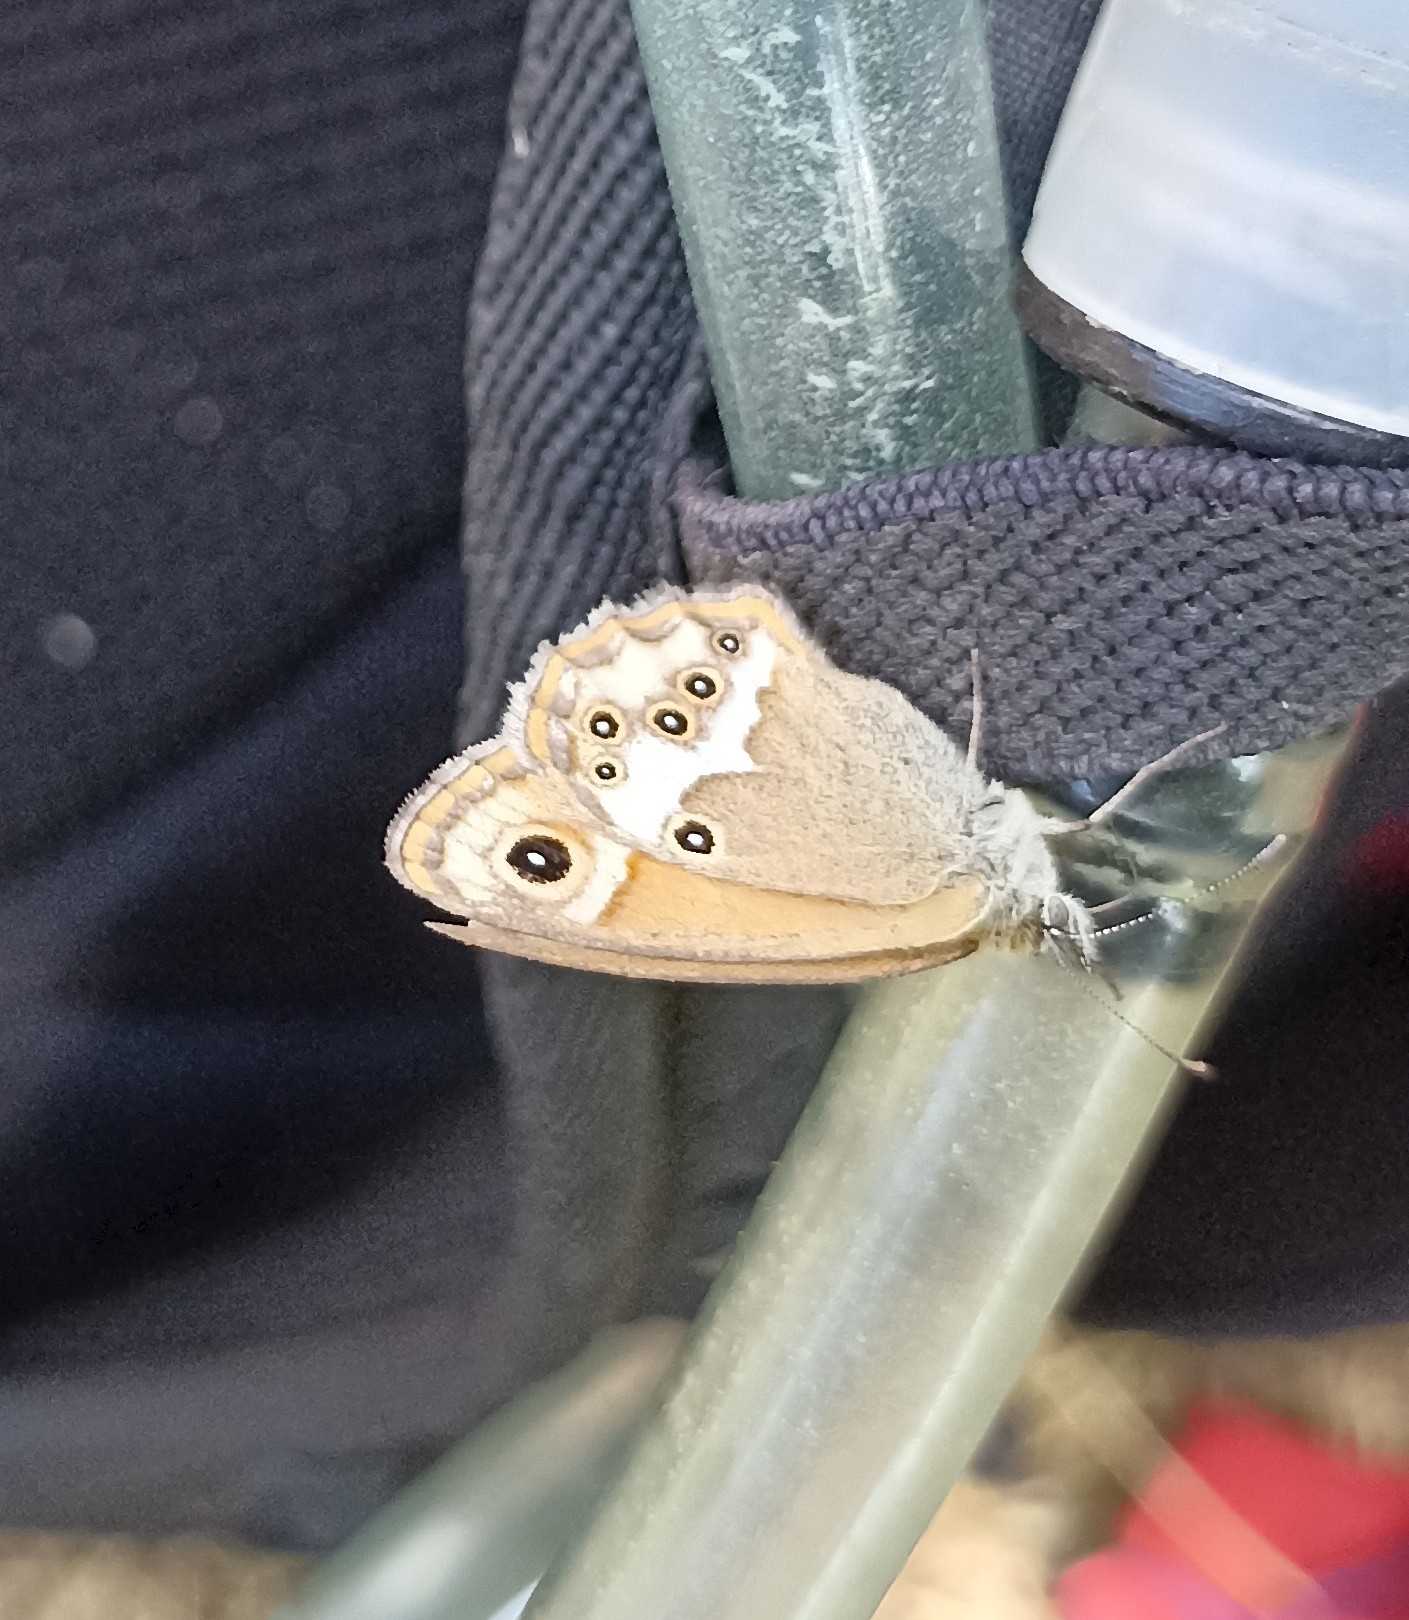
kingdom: Animalia
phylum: Arthropoda
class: Insecta
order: Lepidoptera
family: Nymphalidae
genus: Coenonympha
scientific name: Coenonympha dorus
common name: Dusky heath
